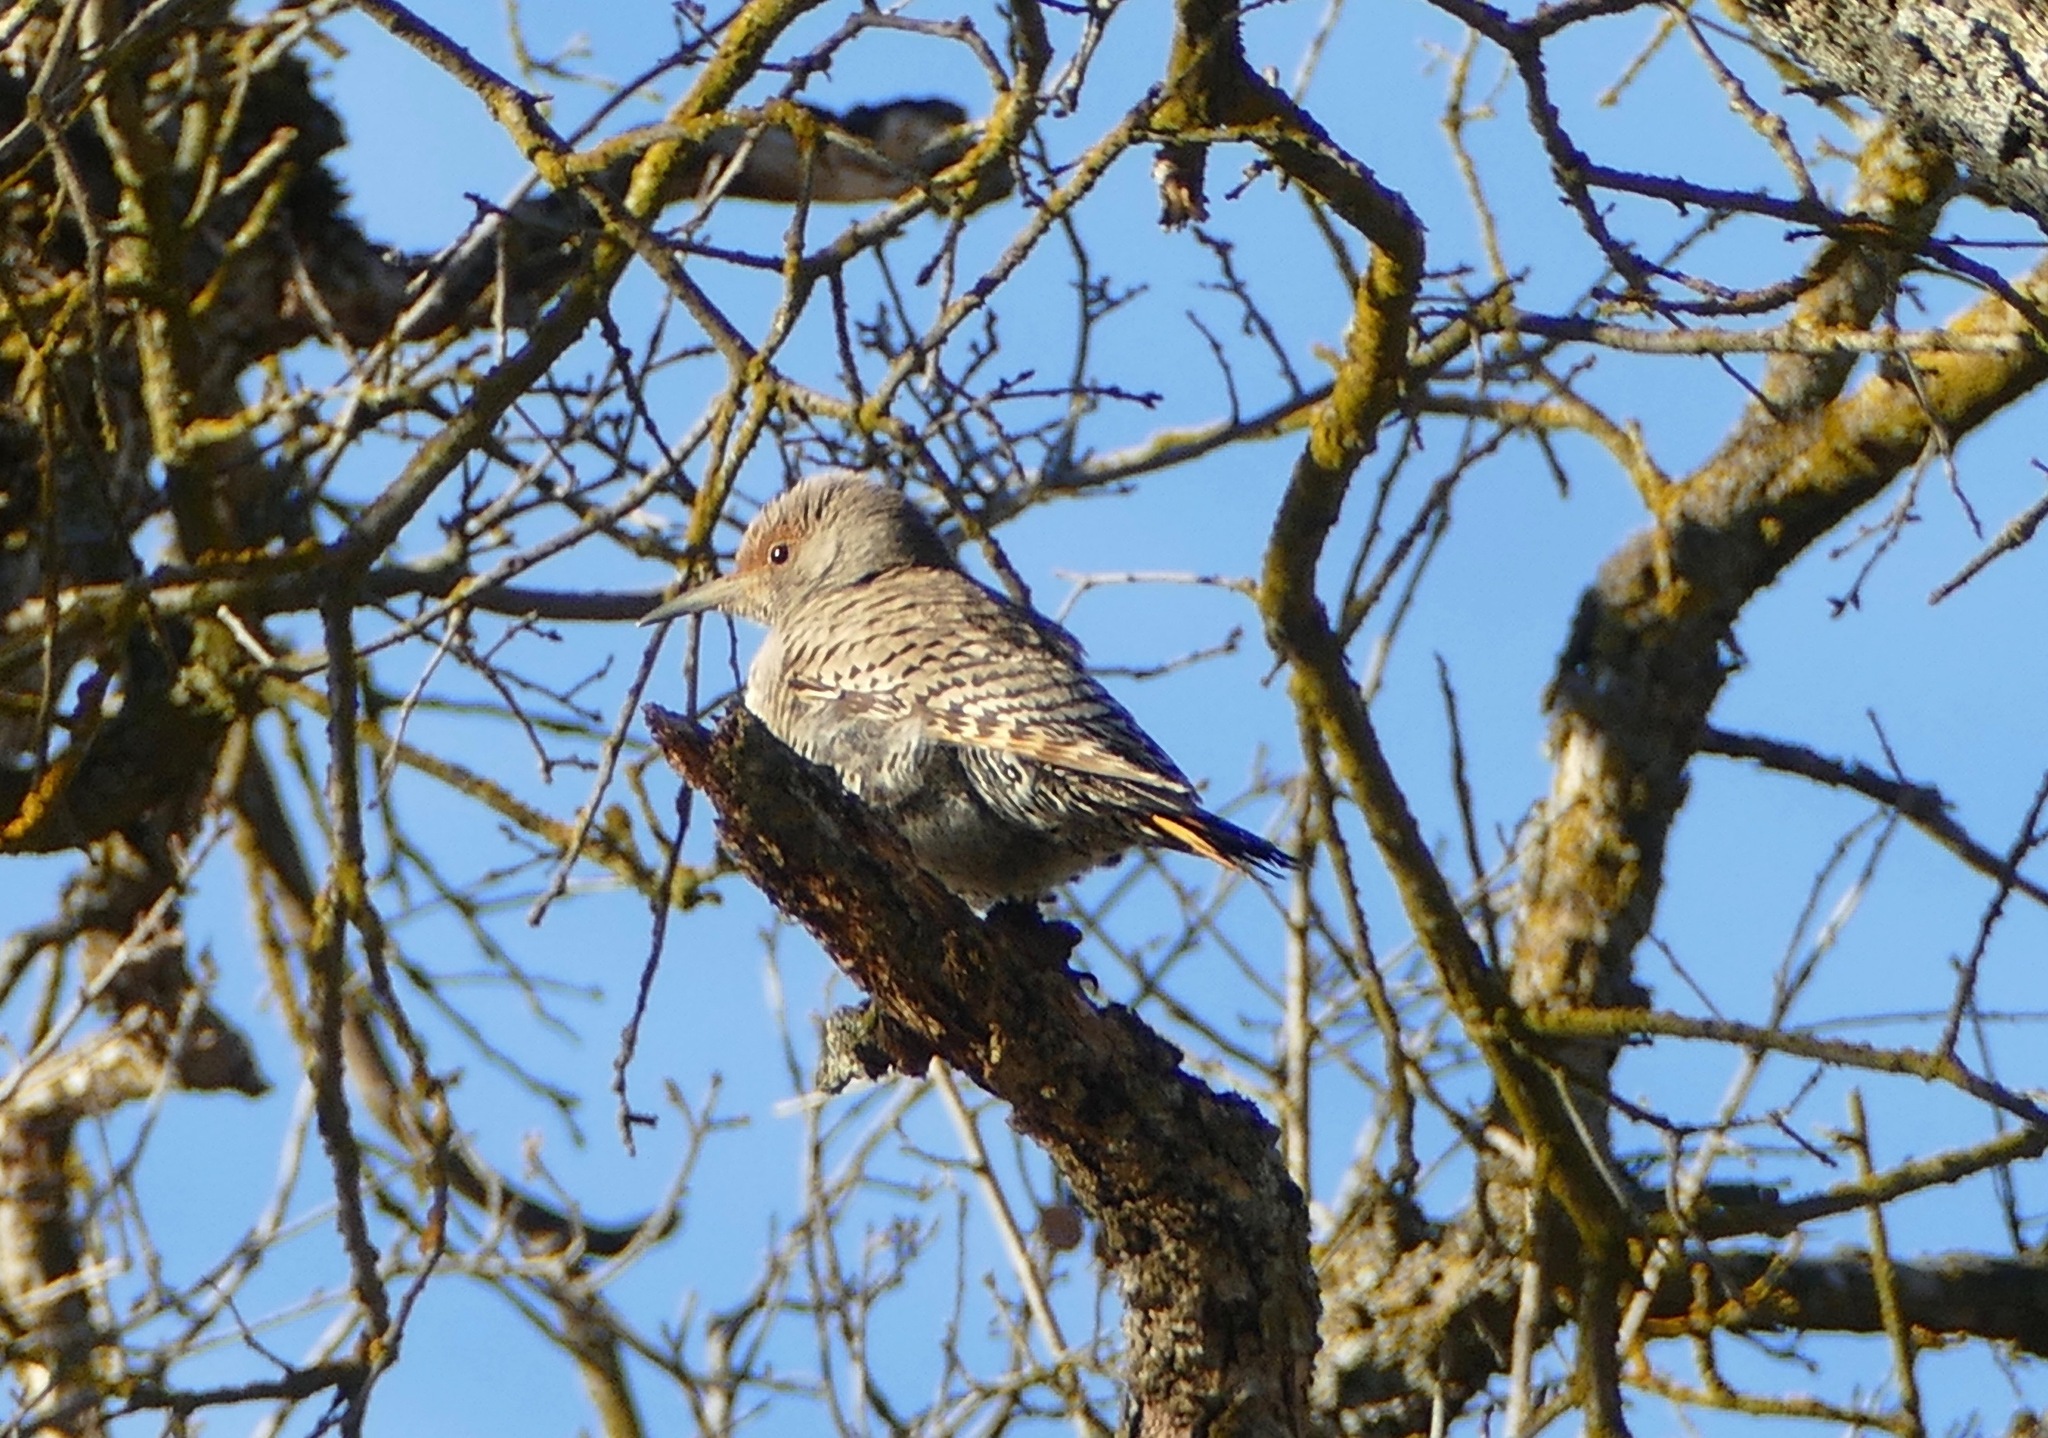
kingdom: Animalia
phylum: Chordata
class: Aves
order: Piciformes
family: Picidae
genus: Colaptes
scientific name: Colaptes auratus
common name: Northern flicker
